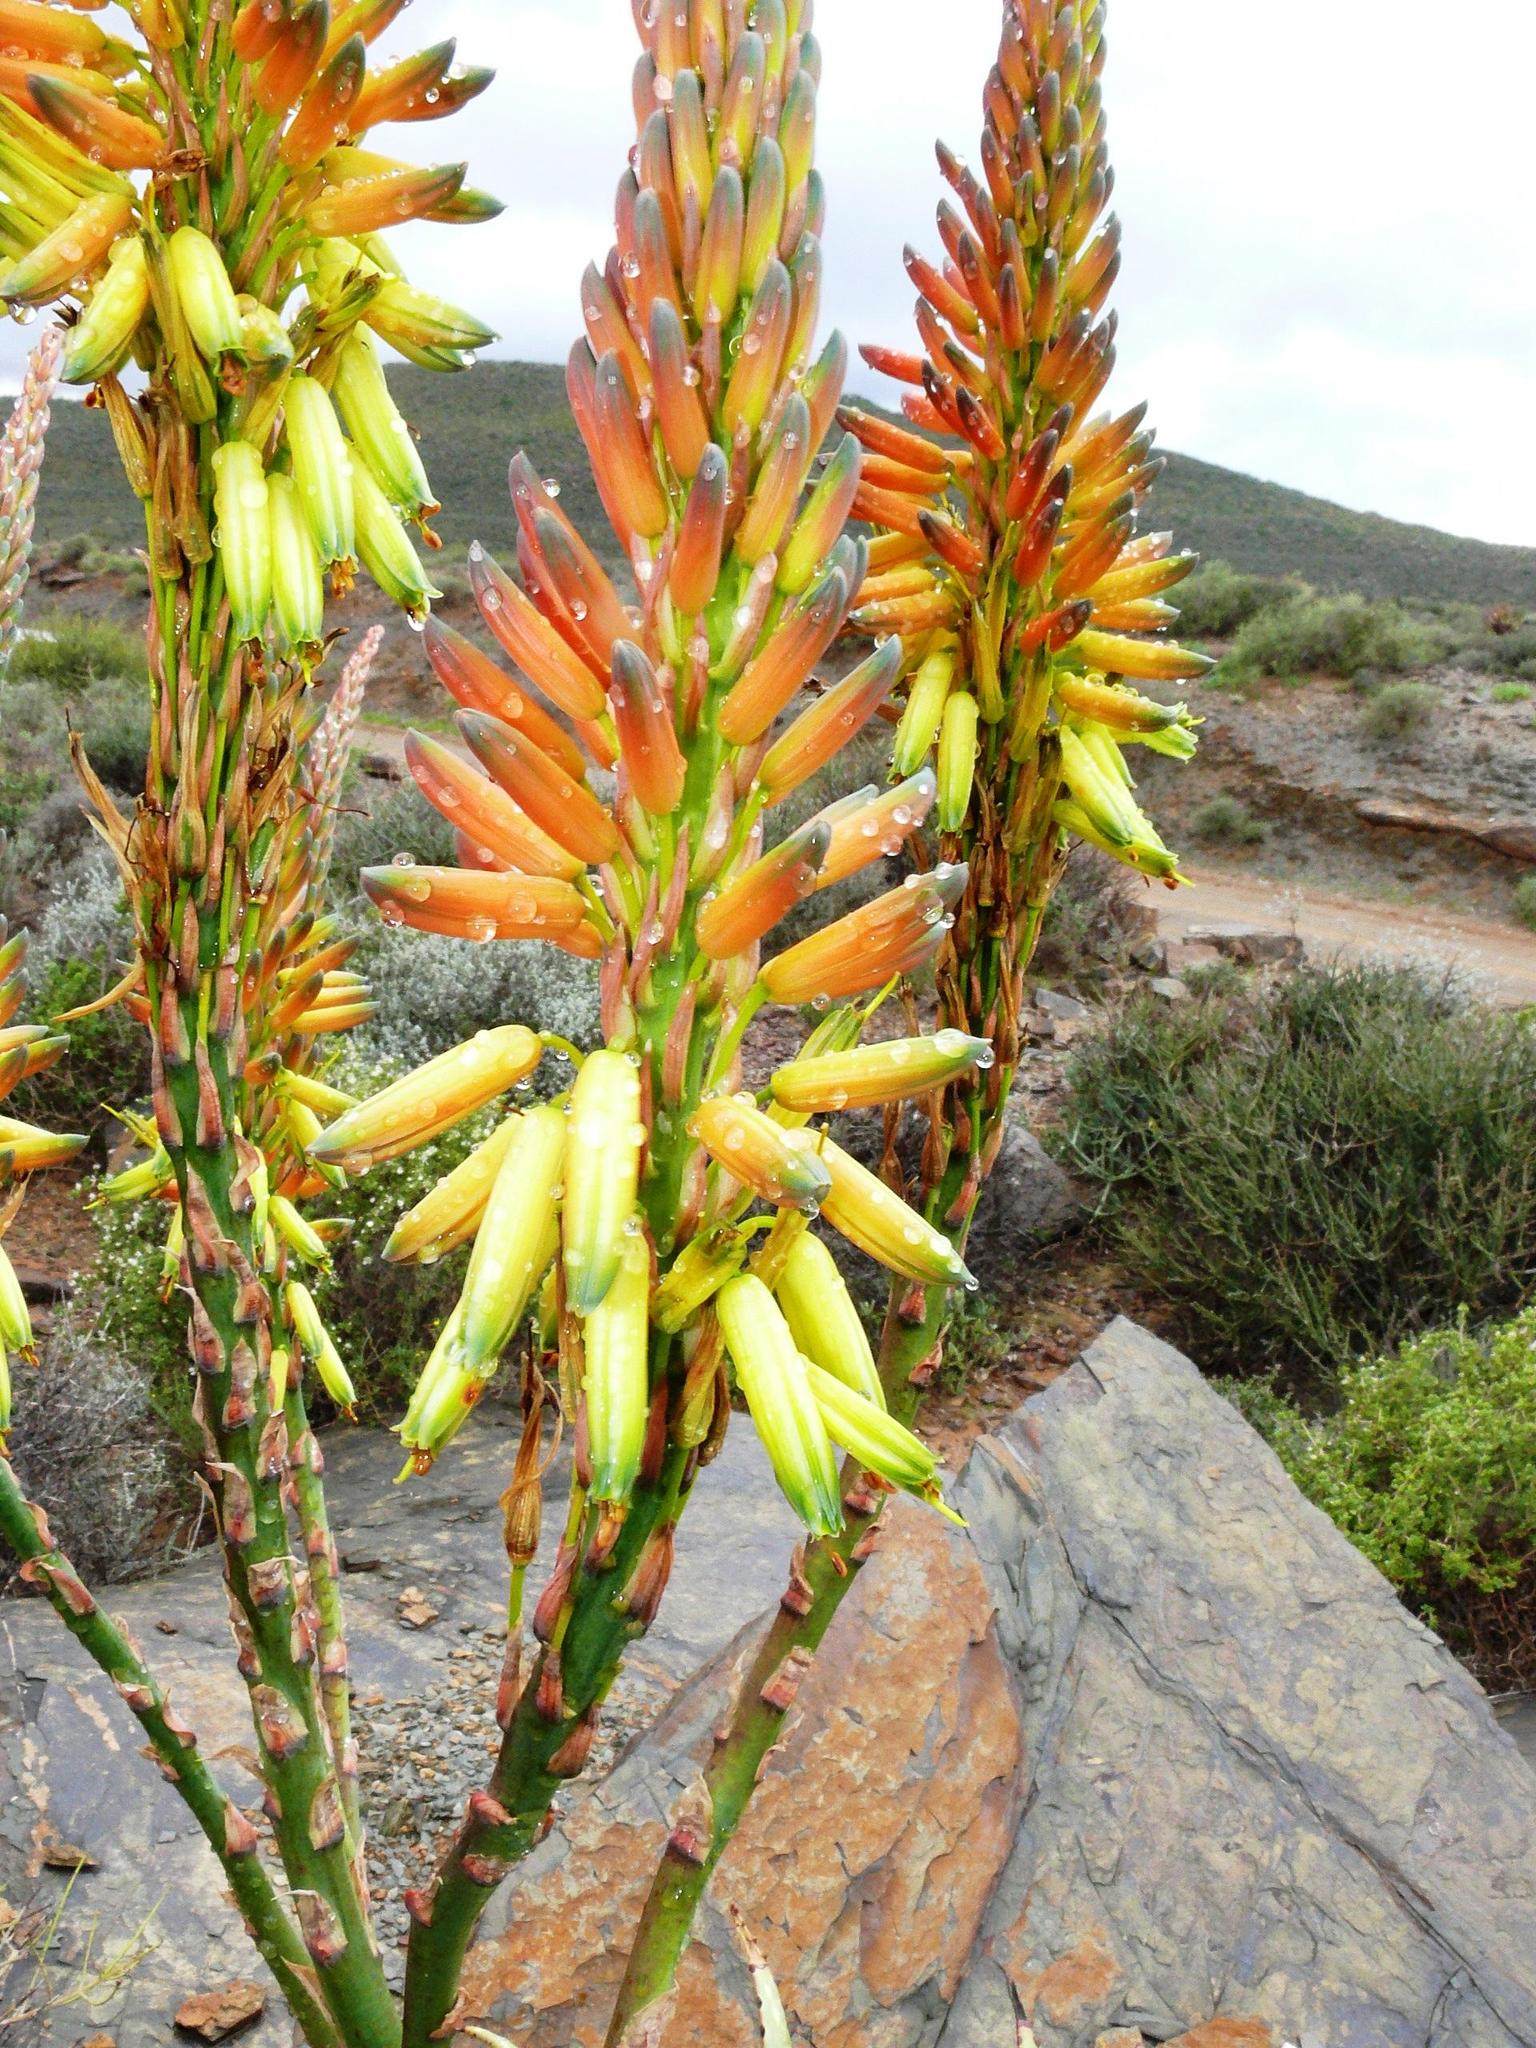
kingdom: Plantae
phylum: Tracheophyta
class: Liliopsida
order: Asparagales
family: Asphodelaceae
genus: Aloe
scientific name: Aloe microstigma
